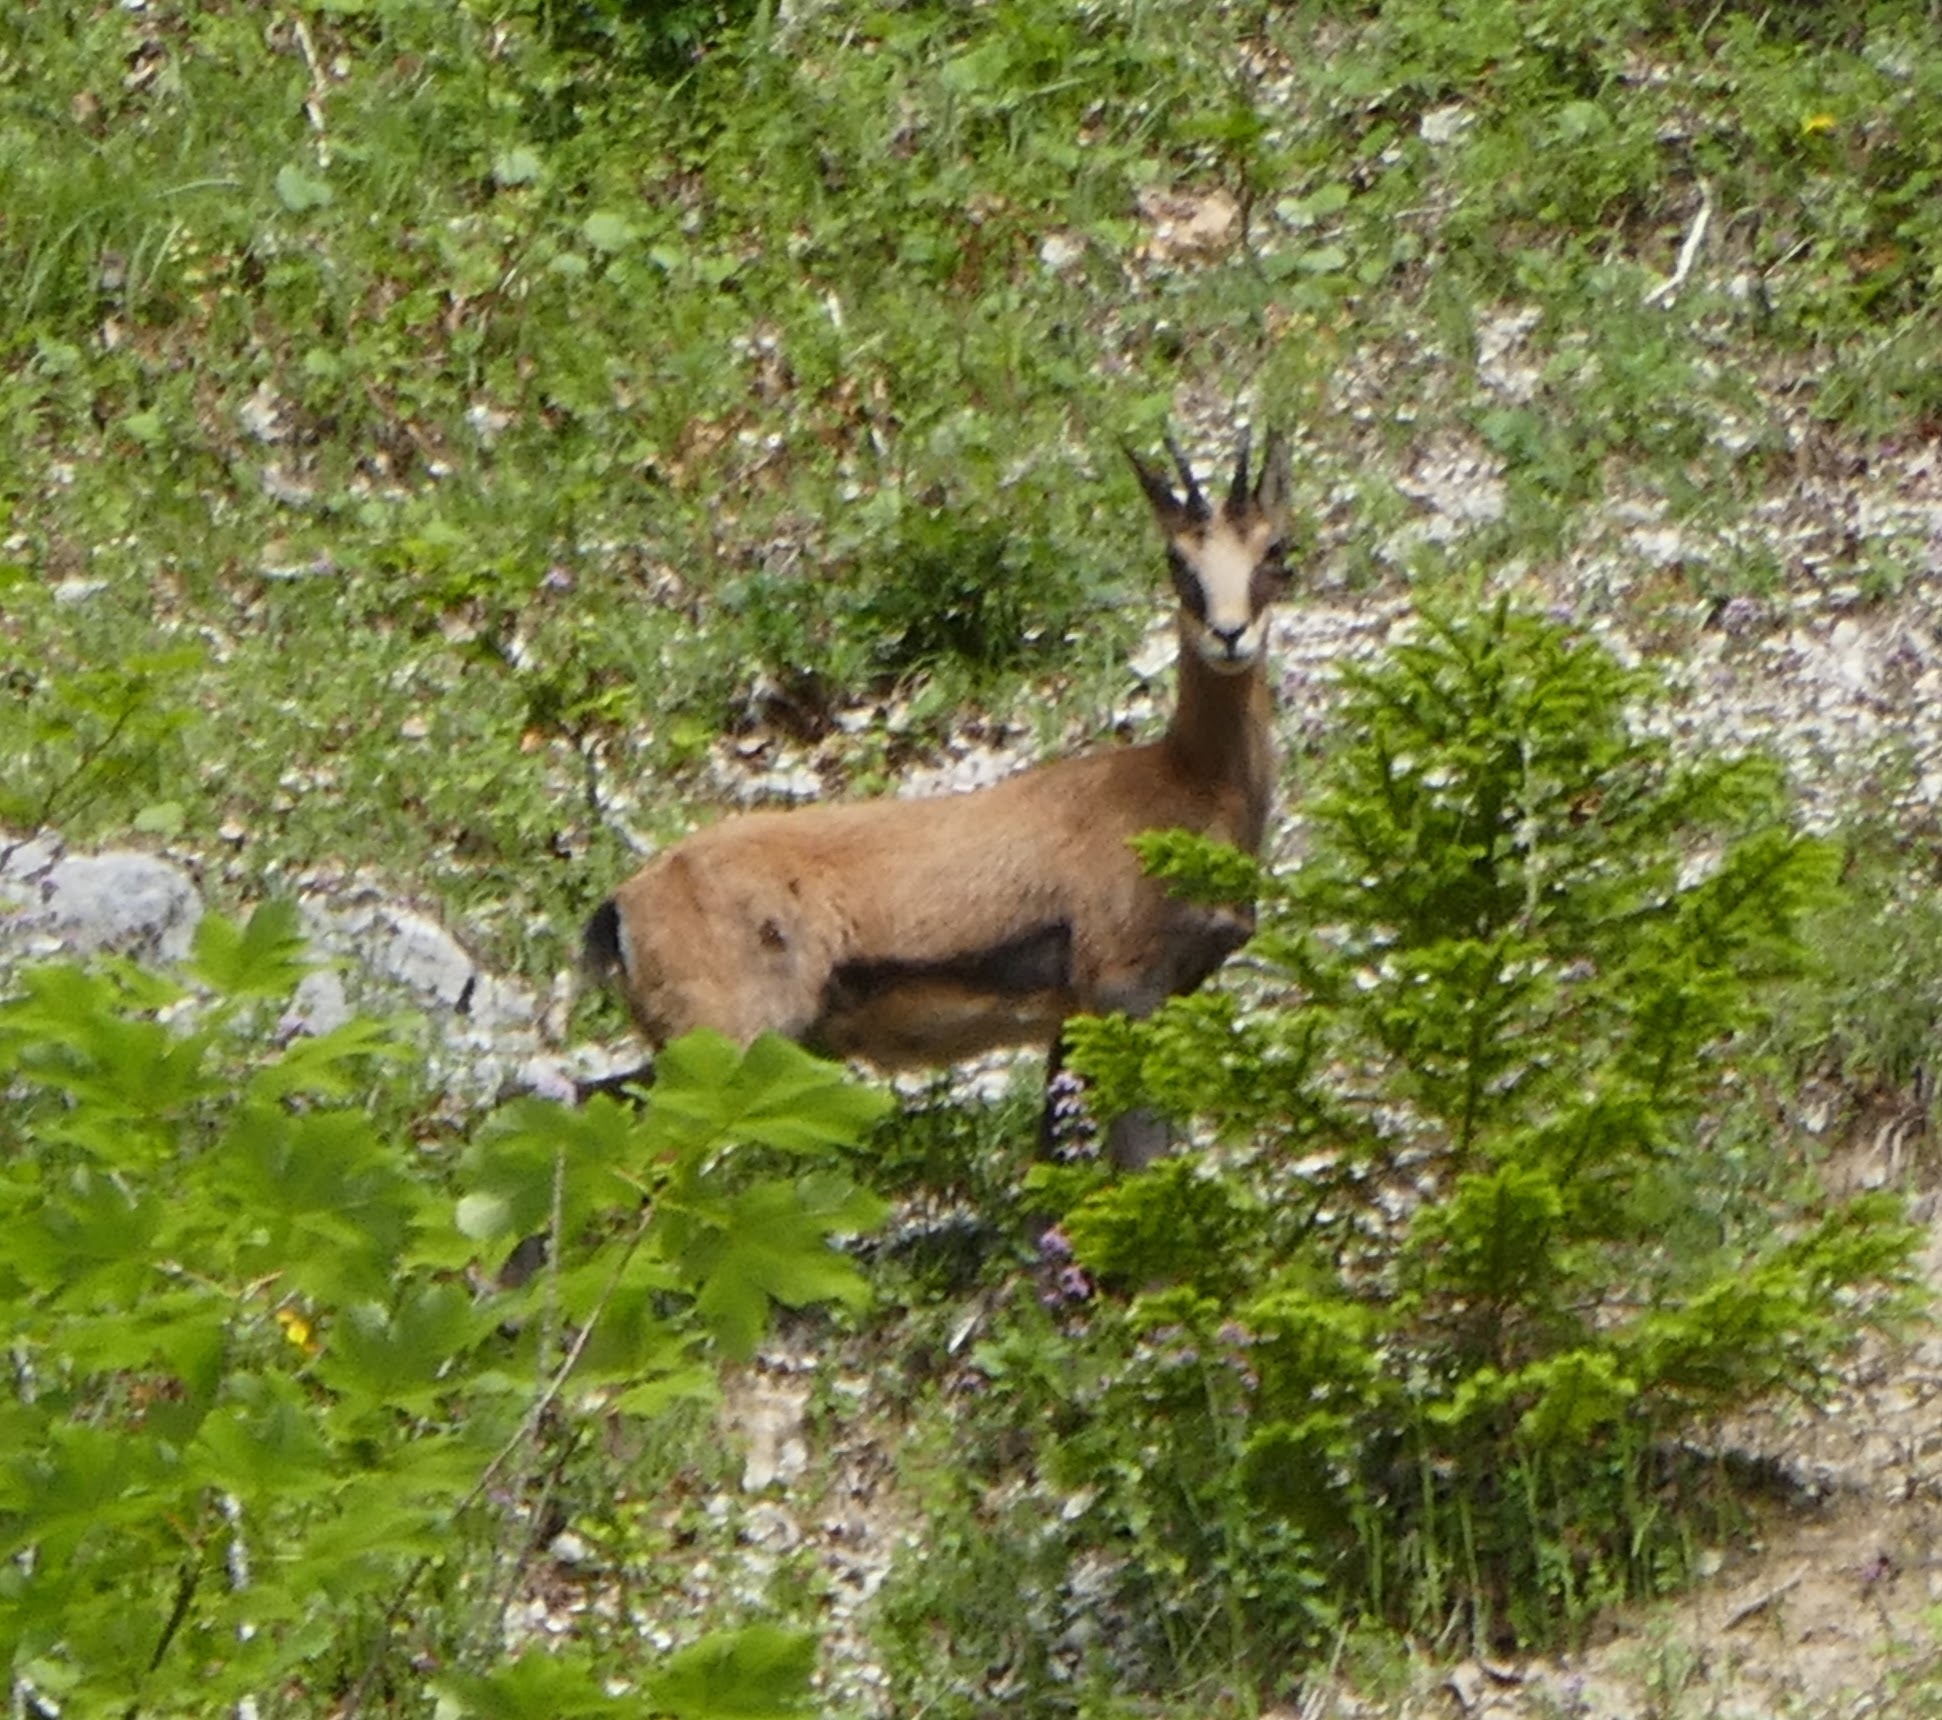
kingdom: Animalia
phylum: Chordata
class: Mammalia
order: Artiodactyla
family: Bovidae
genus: Rupicapra
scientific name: Rupicapra rupicapra
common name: Chamois
